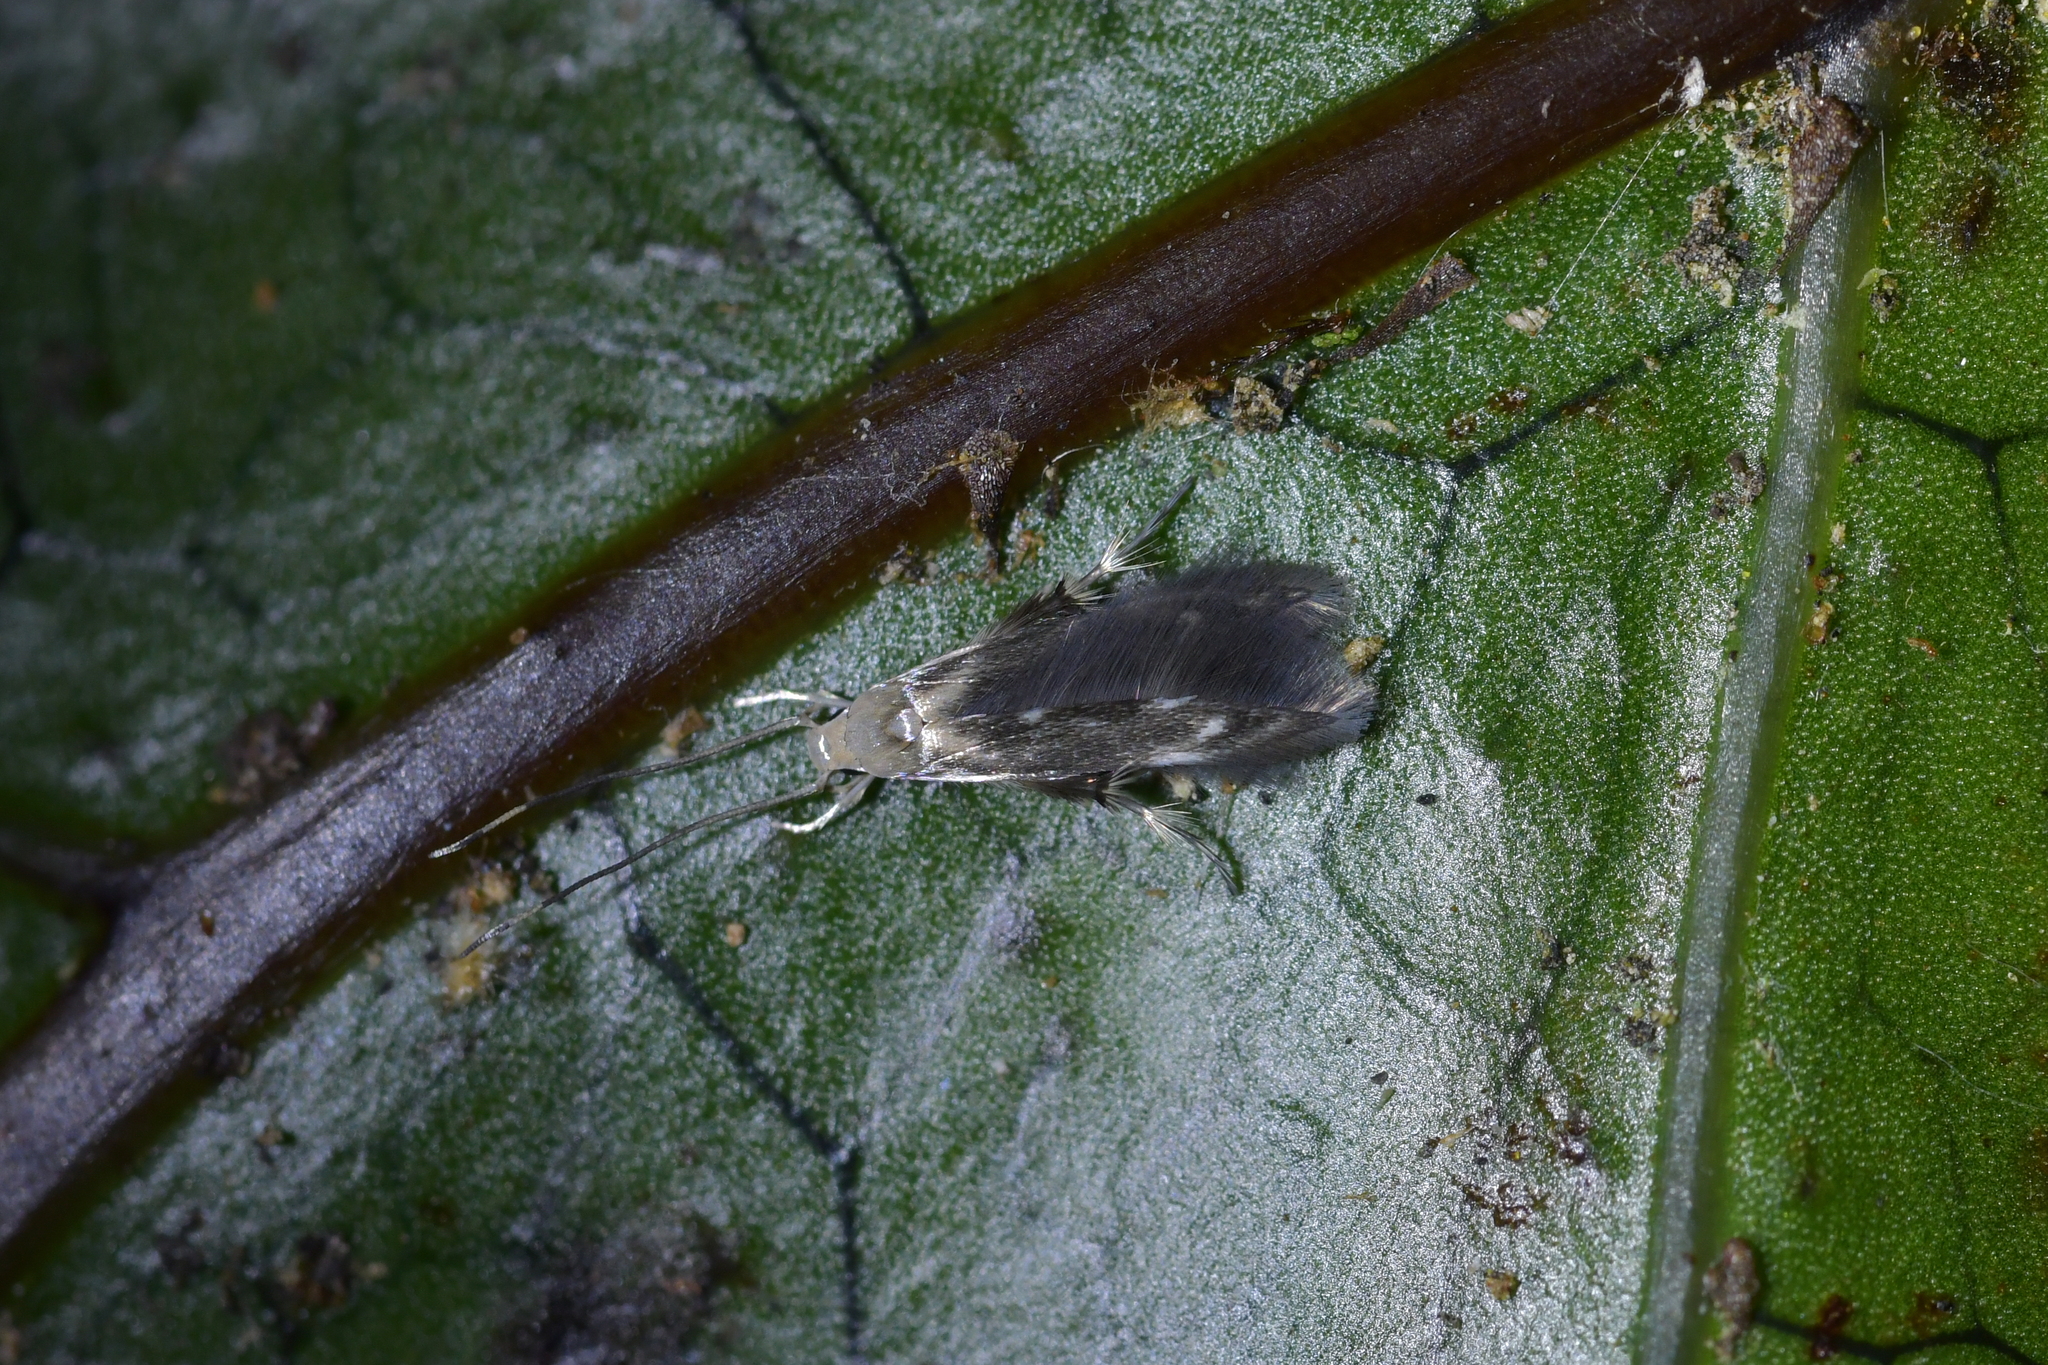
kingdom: Animalia
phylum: Arthropoda
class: Insecta
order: Lepidoptera
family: Stathmopodidae
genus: Thylacosceles
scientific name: Thylacosceles radians
